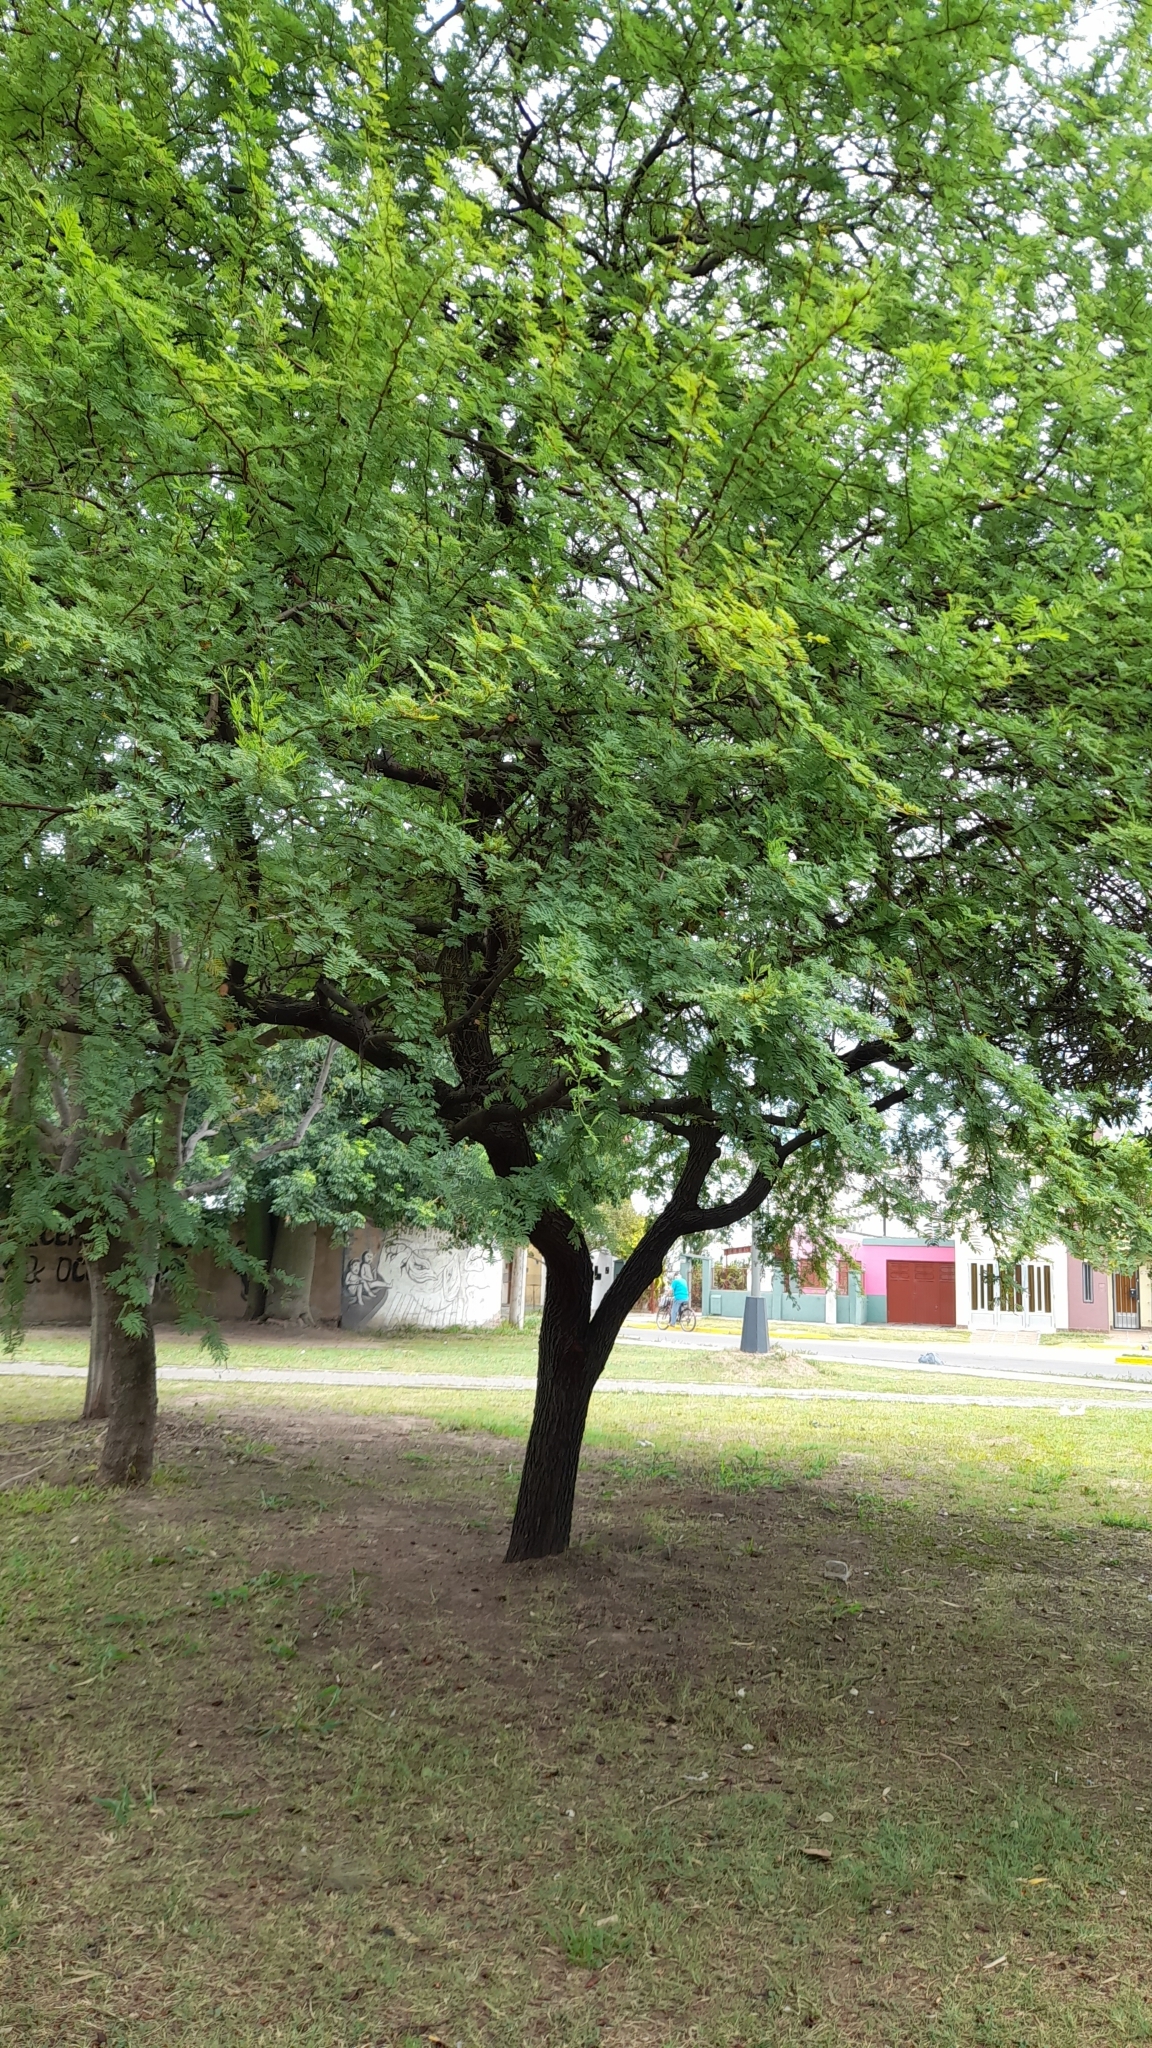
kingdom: Plantae
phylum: Tracheophyta
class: Magnoliopsida
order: Fabales
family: Fabaceae
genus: Vachellia
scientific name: Vachellia caven
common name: Roman cassie
